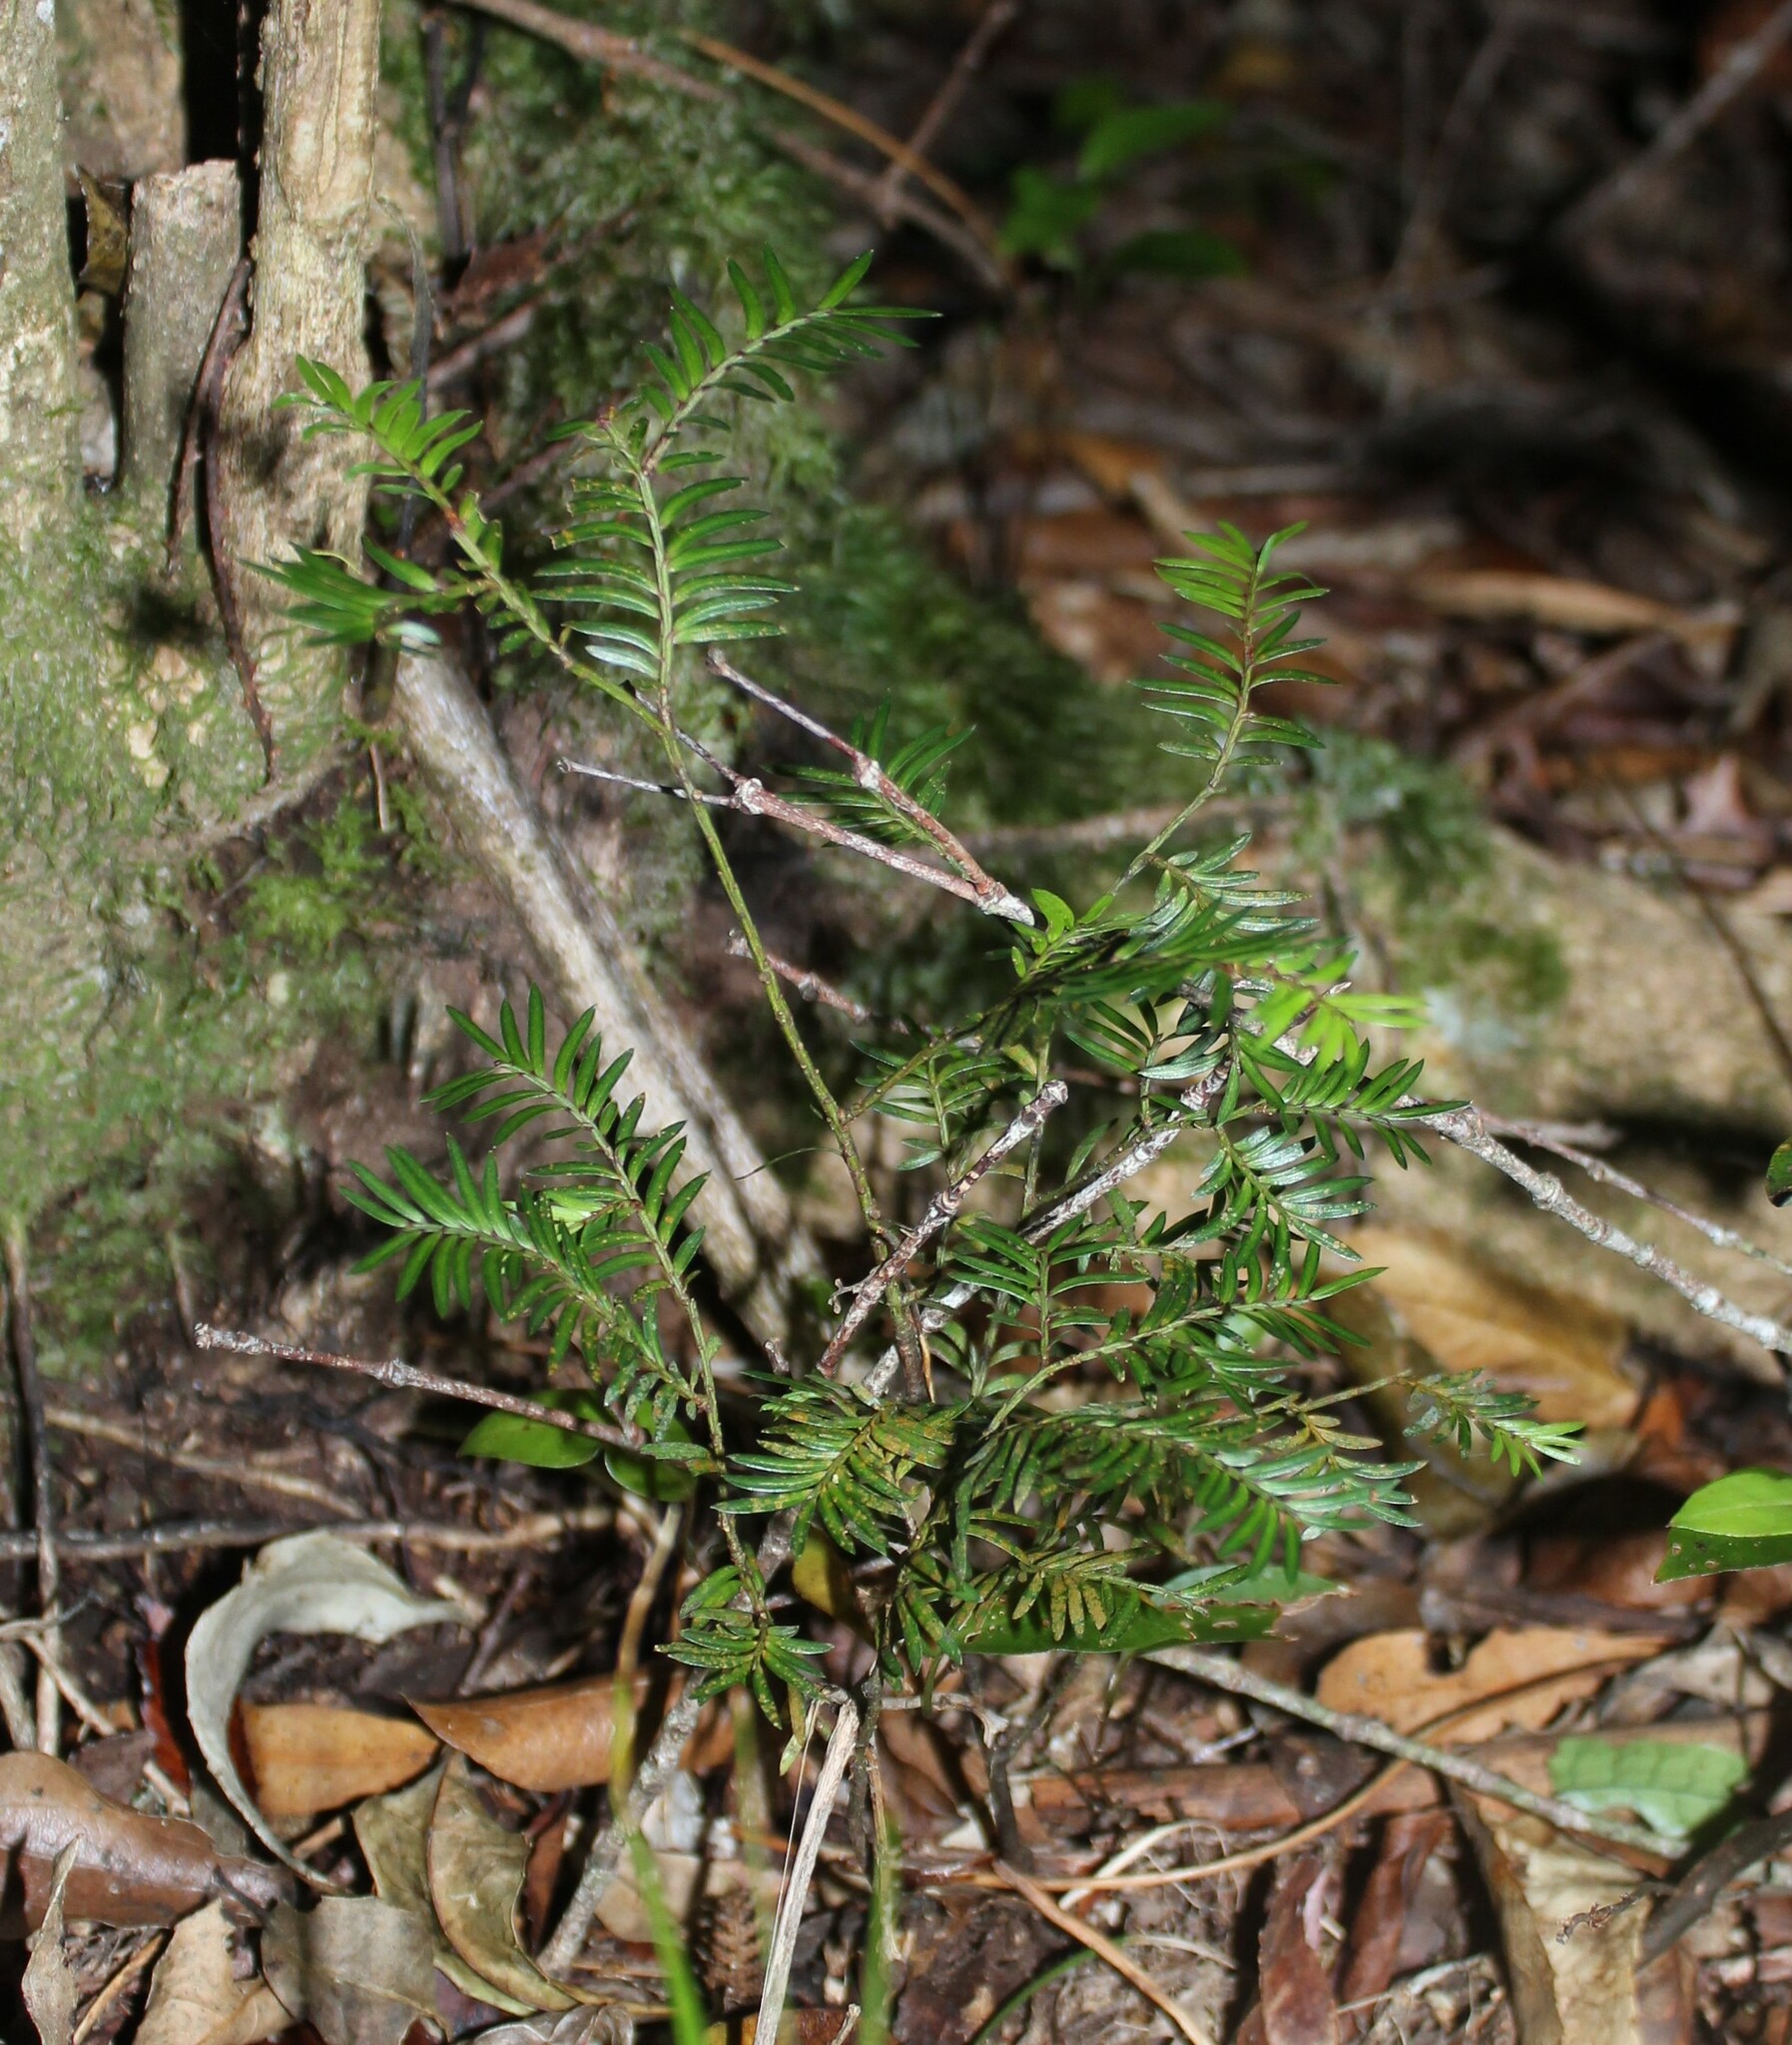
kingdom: Plantae
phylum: Tracheophyta
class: Pinopsida
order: Pinales
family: Podocarpaceae
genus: Prumnopitys
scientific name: Prumnopitys ferruginea
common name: Brown pine
